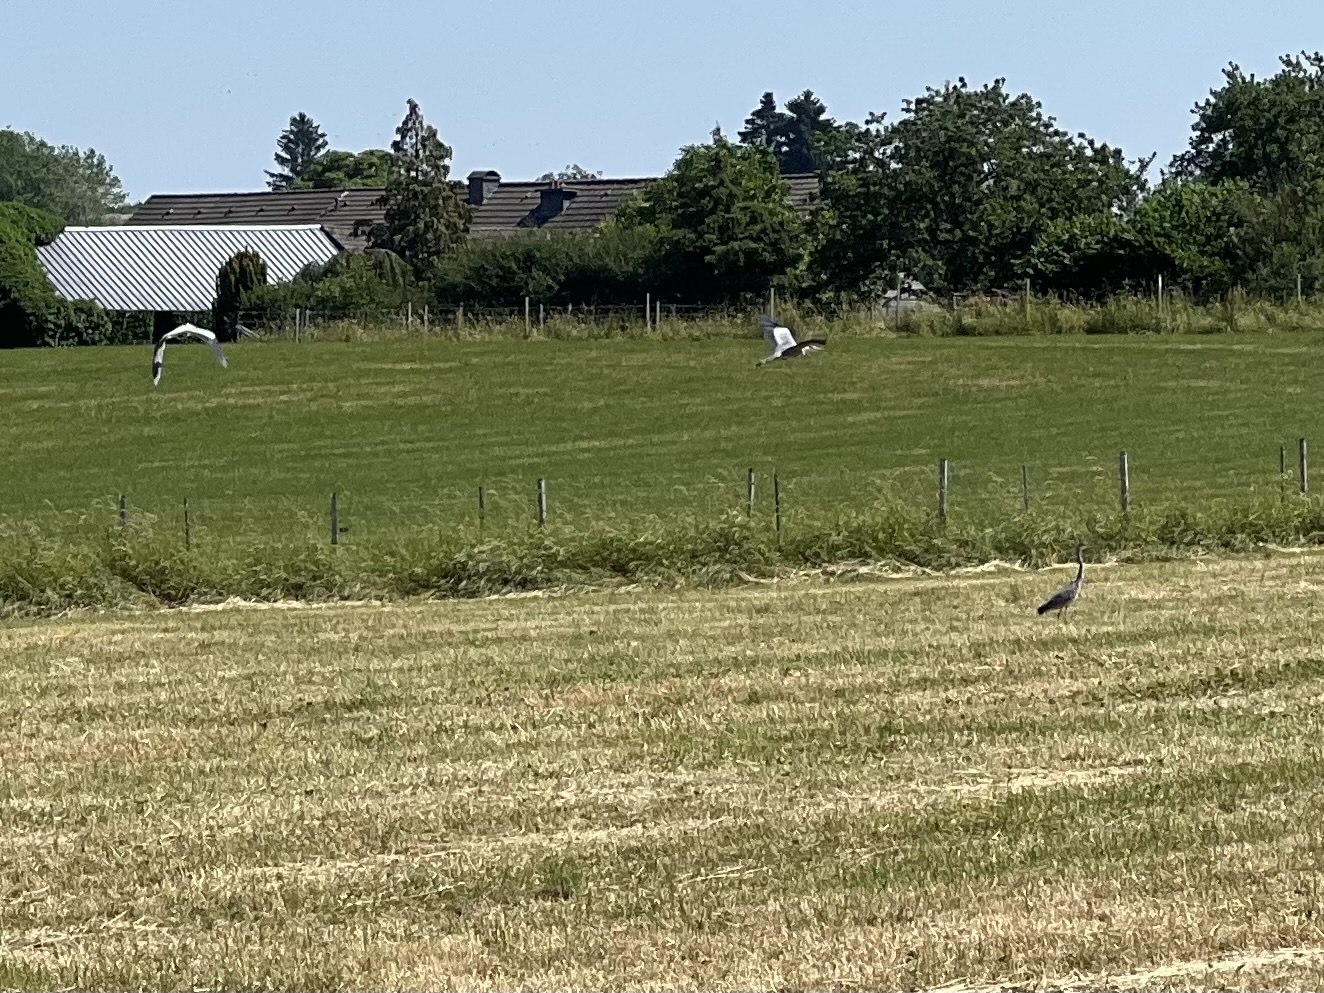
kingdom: Animalia
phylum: Chordata
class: Aves
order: Pelecaniformes
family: Ardeidae
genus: Ardea
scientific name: Ardea cinerea
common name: Grey heron
